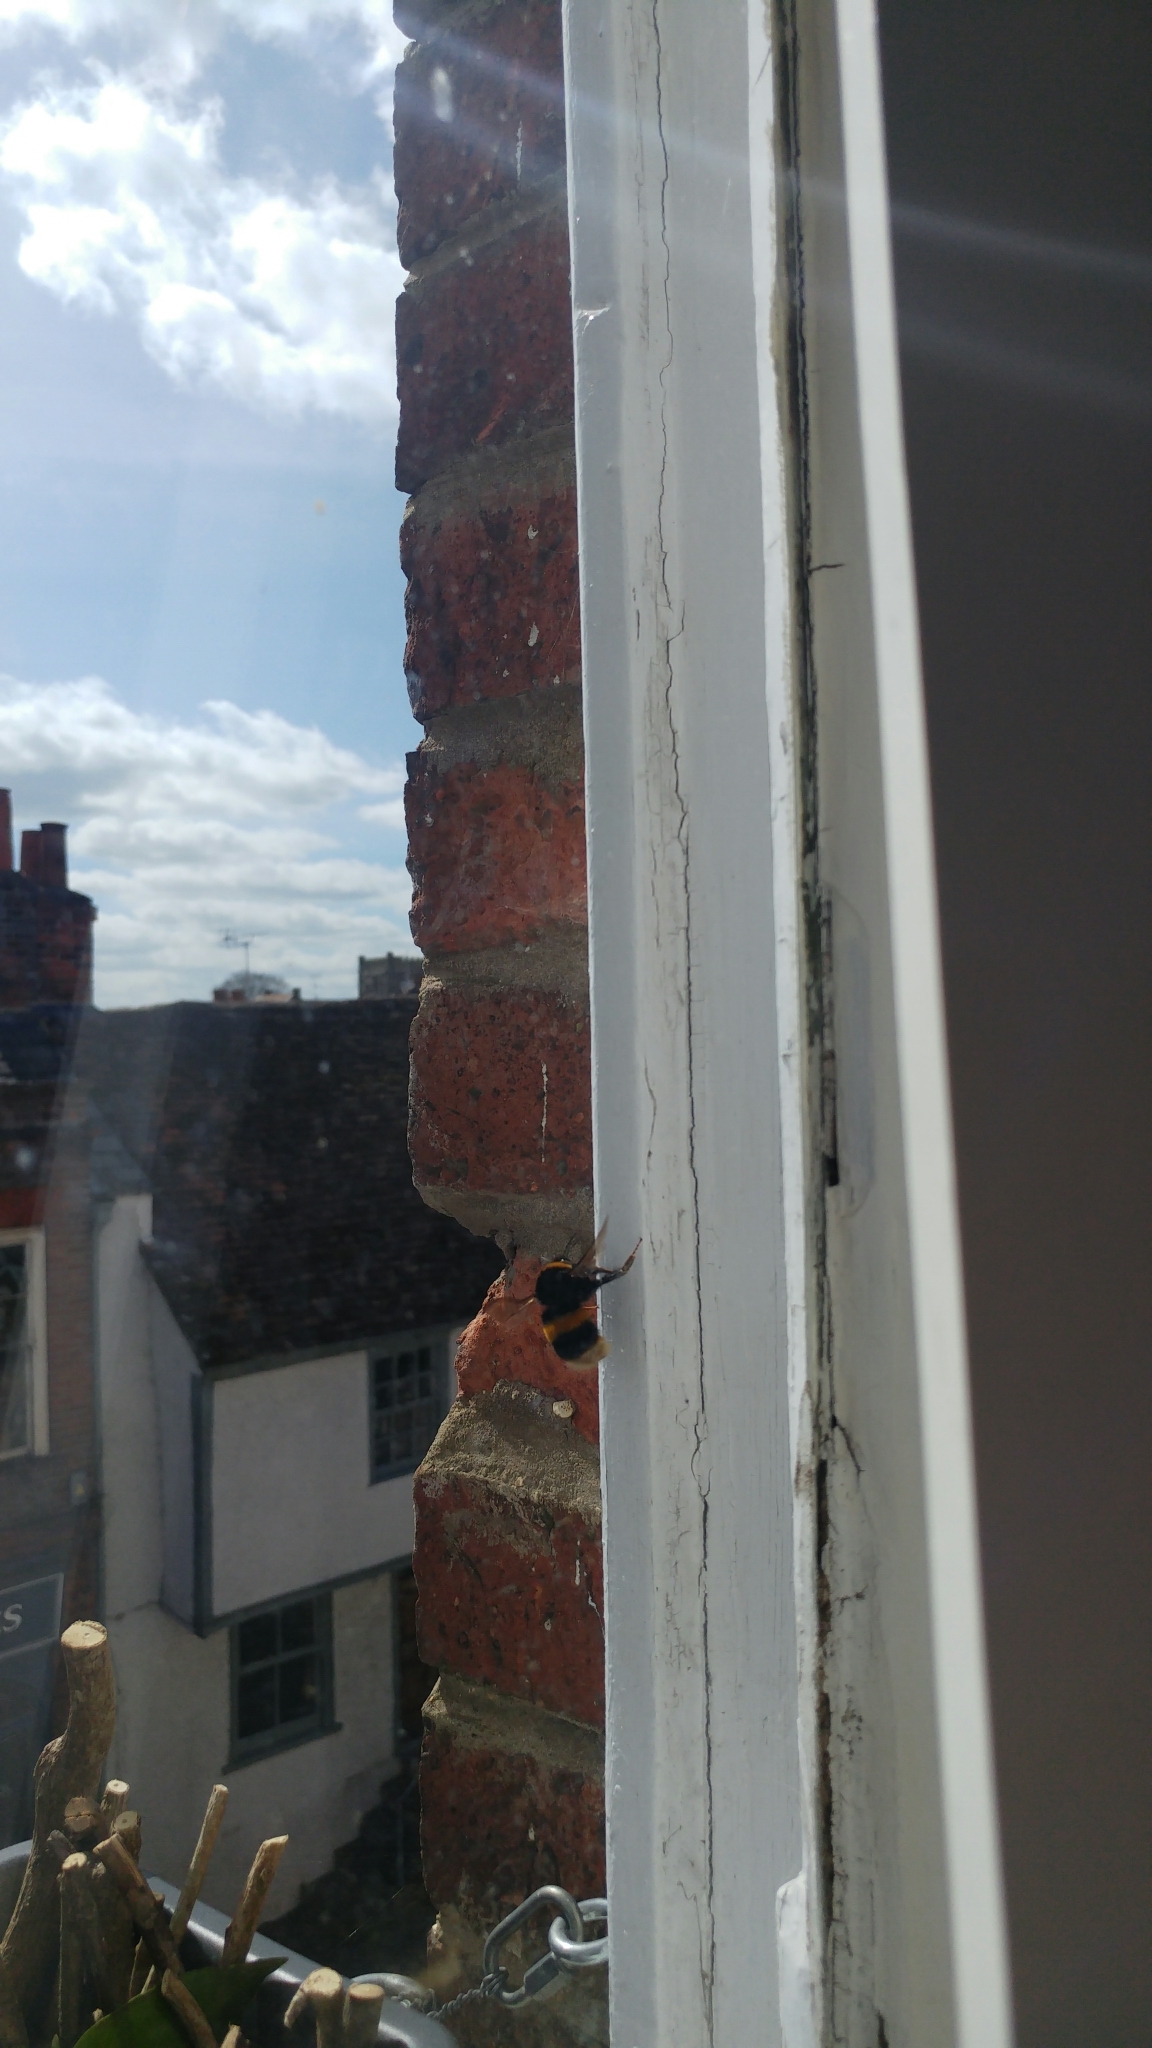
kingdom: Animalia
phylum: Arthropoda
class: Insecta
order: Hymenoptera
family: Apidae
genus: Bombus
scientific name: Bombus terrestris
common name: Buff-tailed bumblebee
